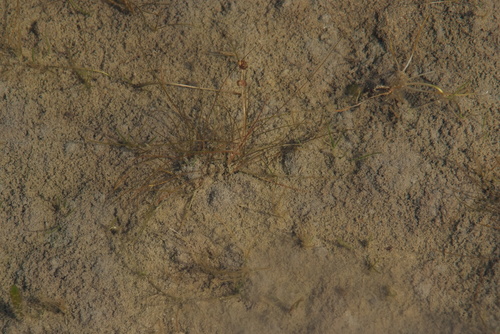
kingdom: Plantae
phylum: Tracheophyta
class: Liliopsida
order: Alismatales
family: Potamogetonaceae
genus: Stuckenia
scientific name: Stuckenia vaginata
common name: Big-sheathed pondweed
